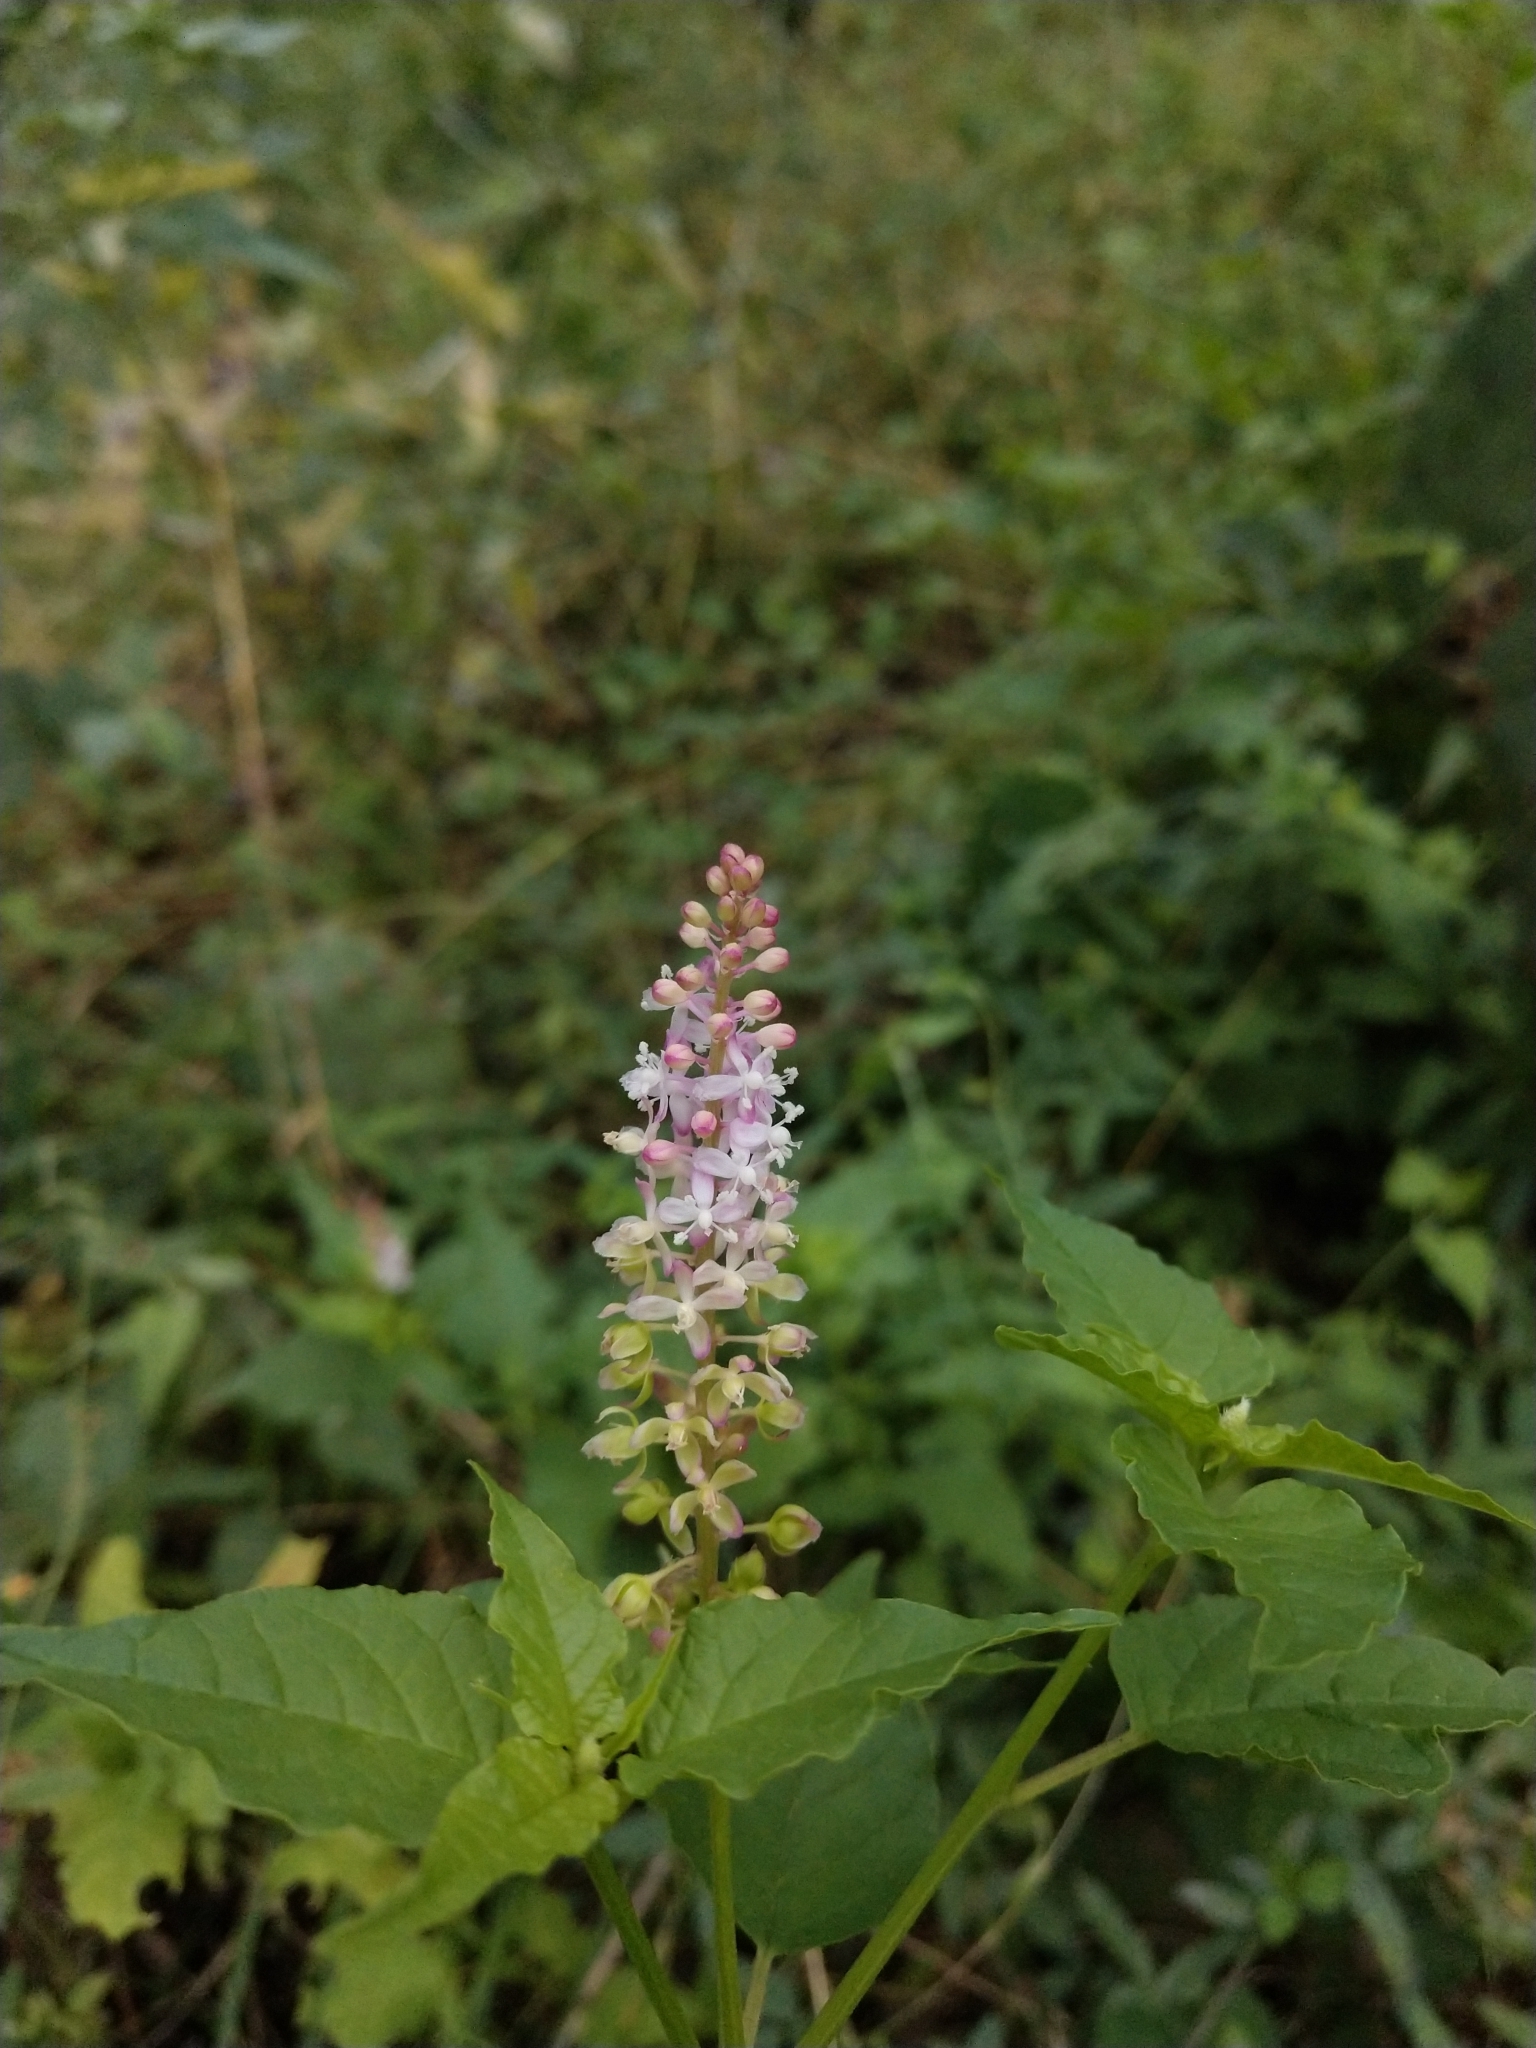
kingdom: Plantae
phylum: Tracheophyta
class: Magnoliopsida
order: Caryophyllales
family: Phytolaccaceae
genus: Rivina
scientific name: Rivina humilis
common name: Rougeplant
